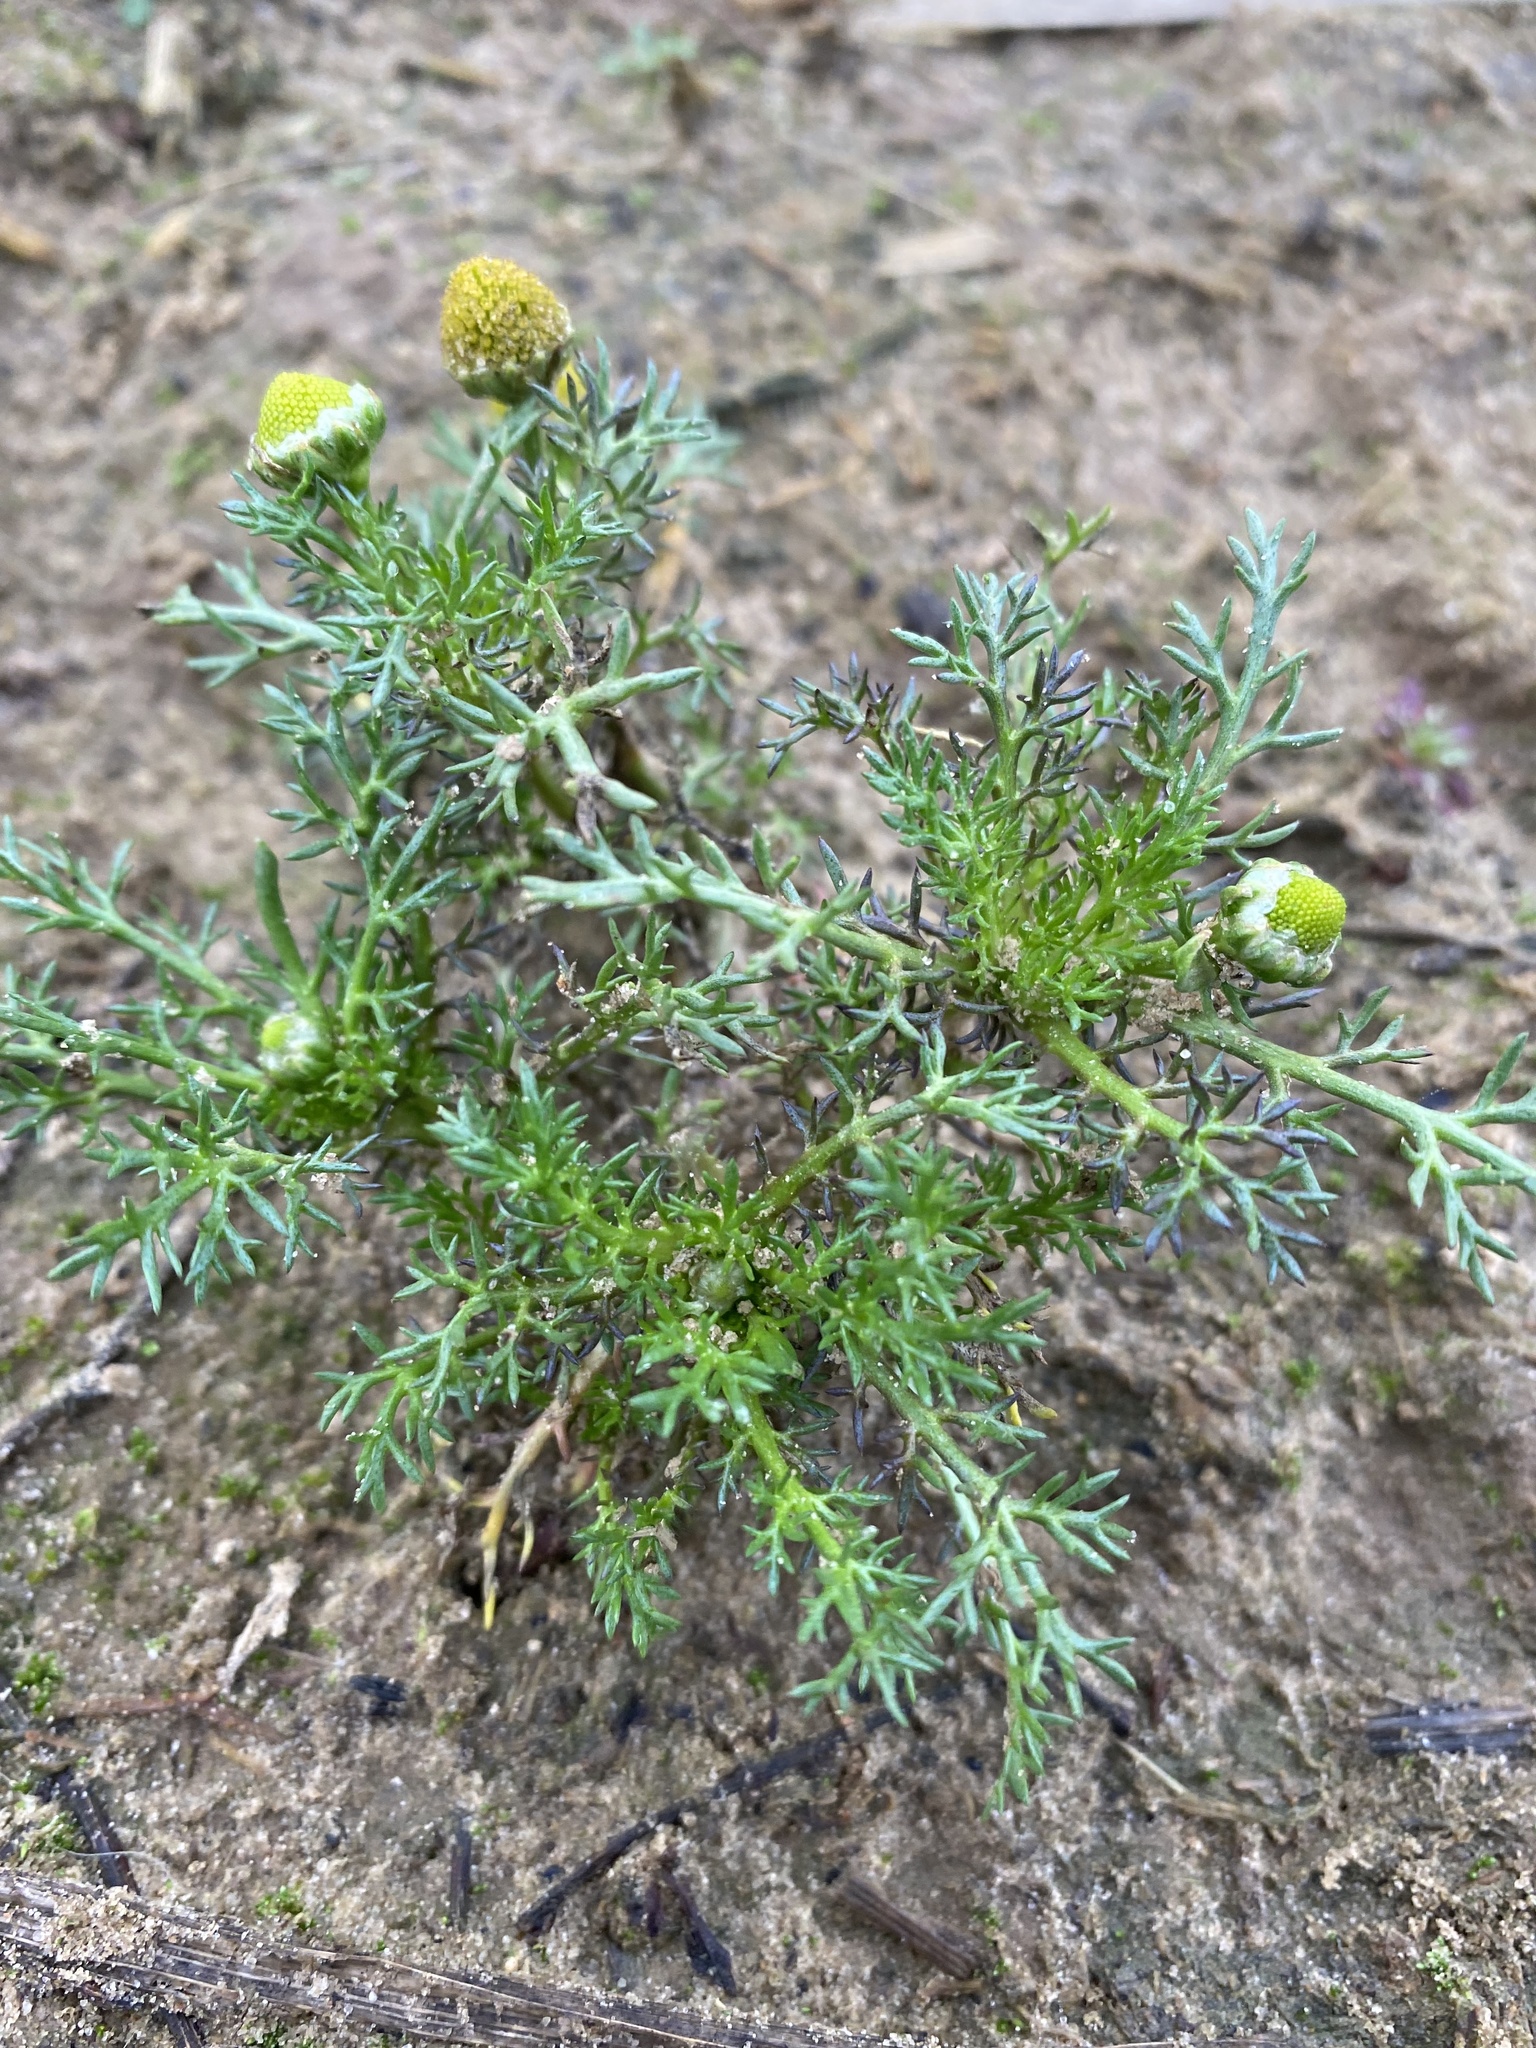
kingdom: Plantae
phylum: Tracheophyta
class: Magnoliopsida
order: Asterales
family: Asteraceae
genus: Matricaria
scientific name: Matricaria discoidea
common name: Disc mayweed
